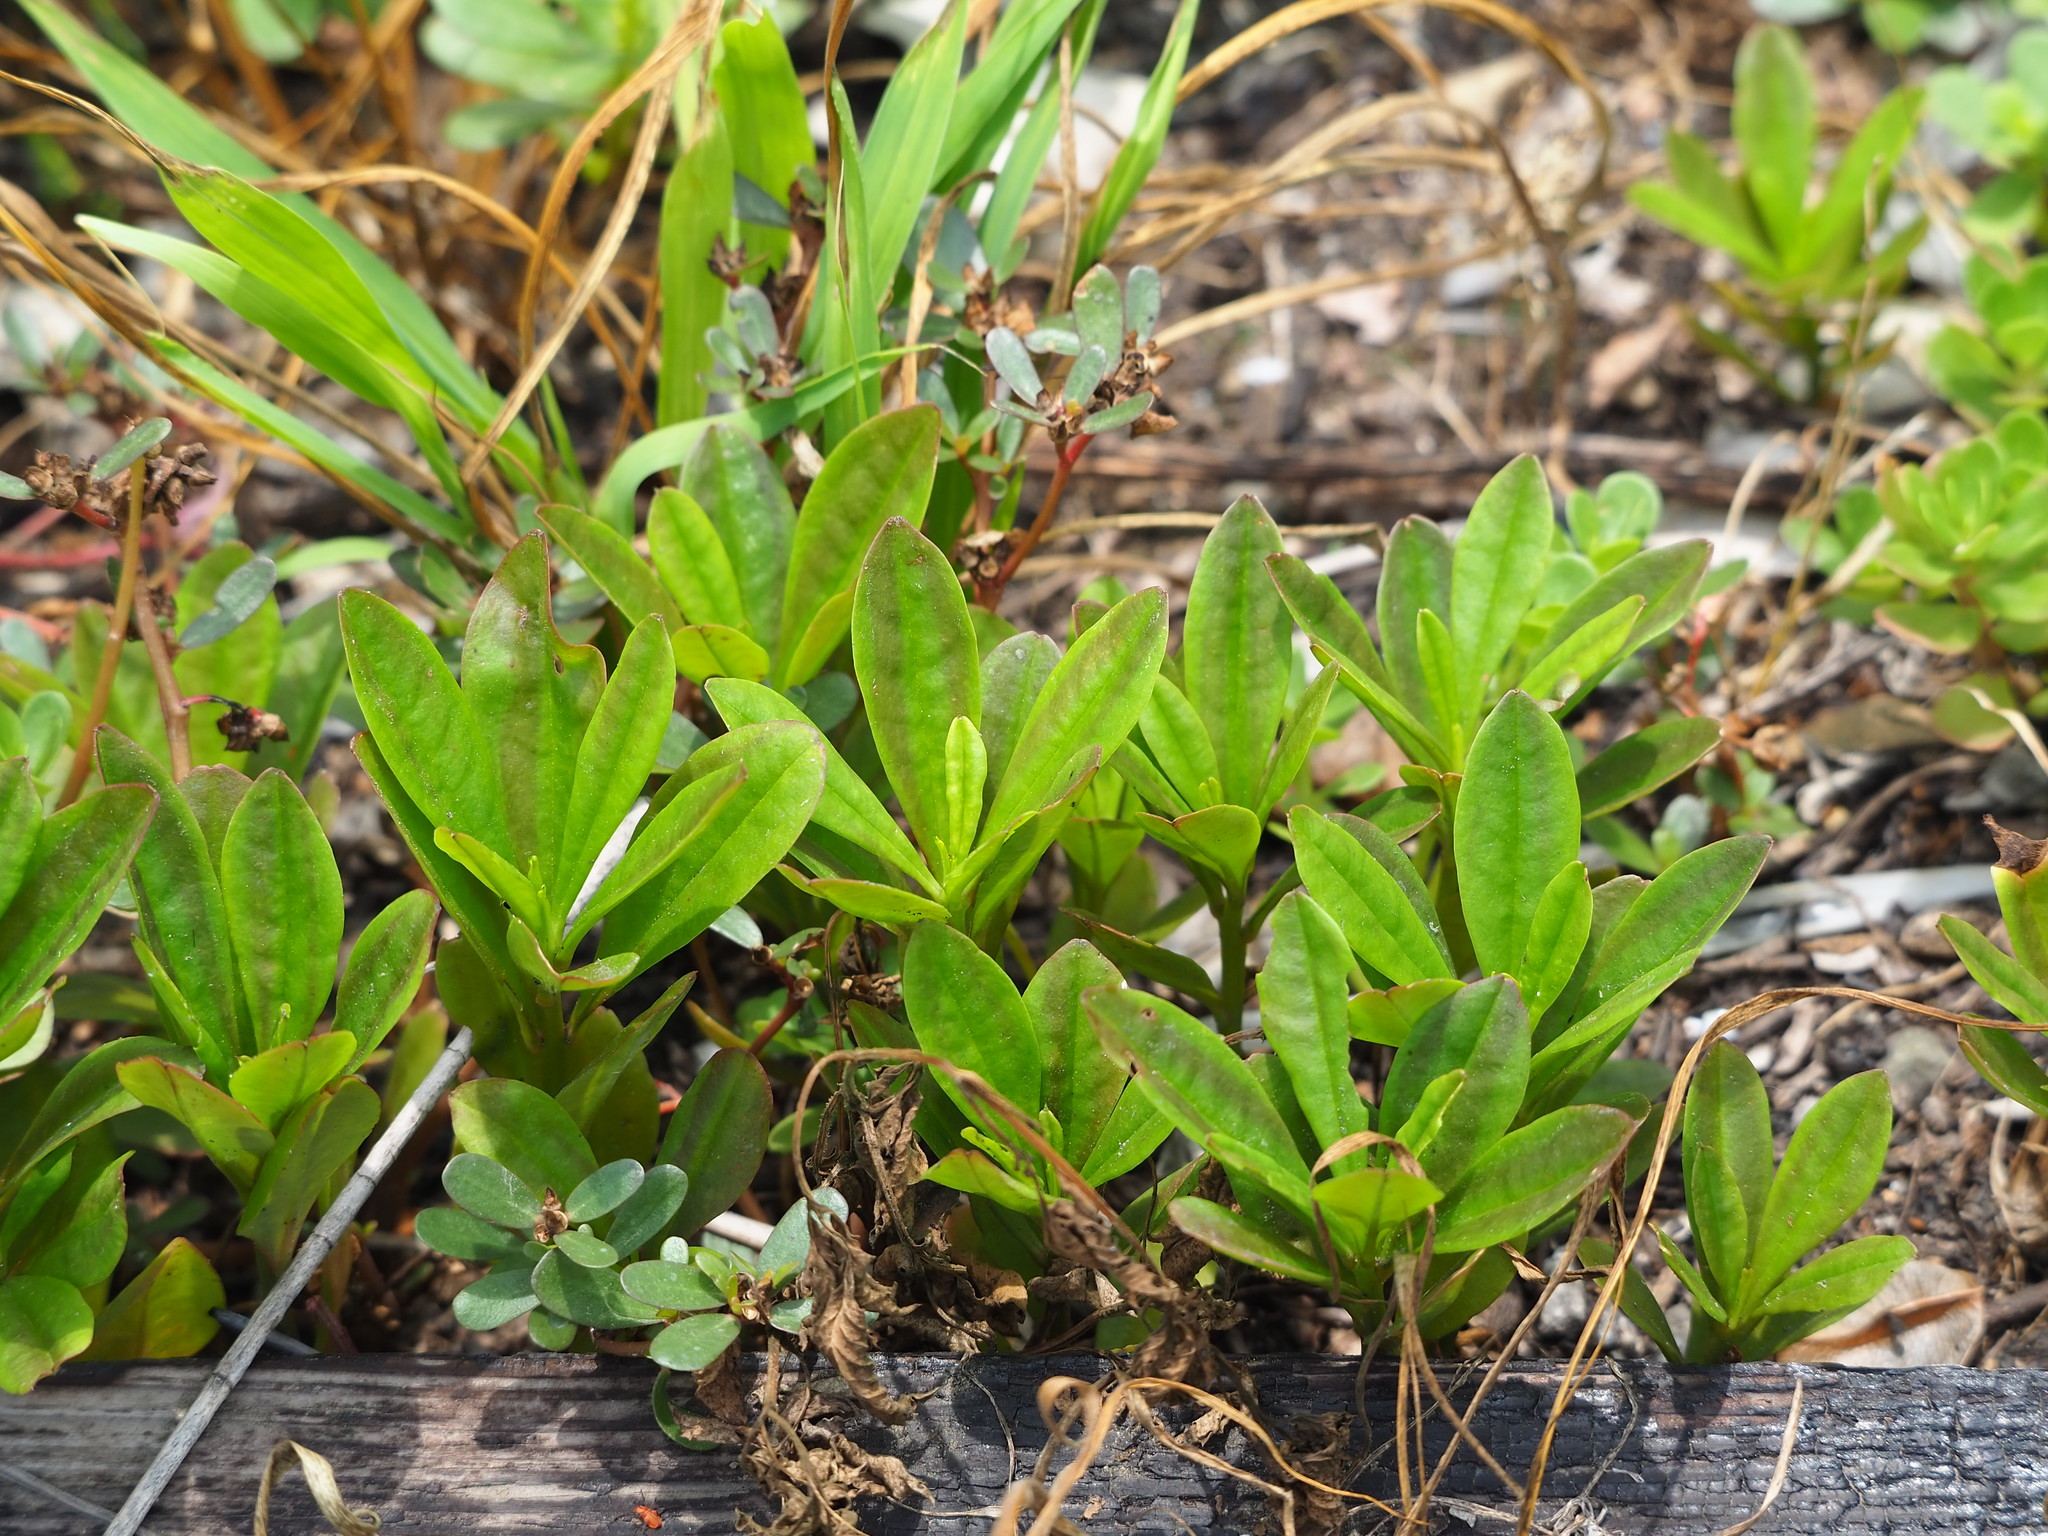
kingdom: Plantae
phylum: Tracheophyta
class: Magnoliopsida
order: Caryophyllales
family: Talinaceae
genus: Talinum
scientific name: Talinum fruticosum
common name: Verdolaga-francesa
